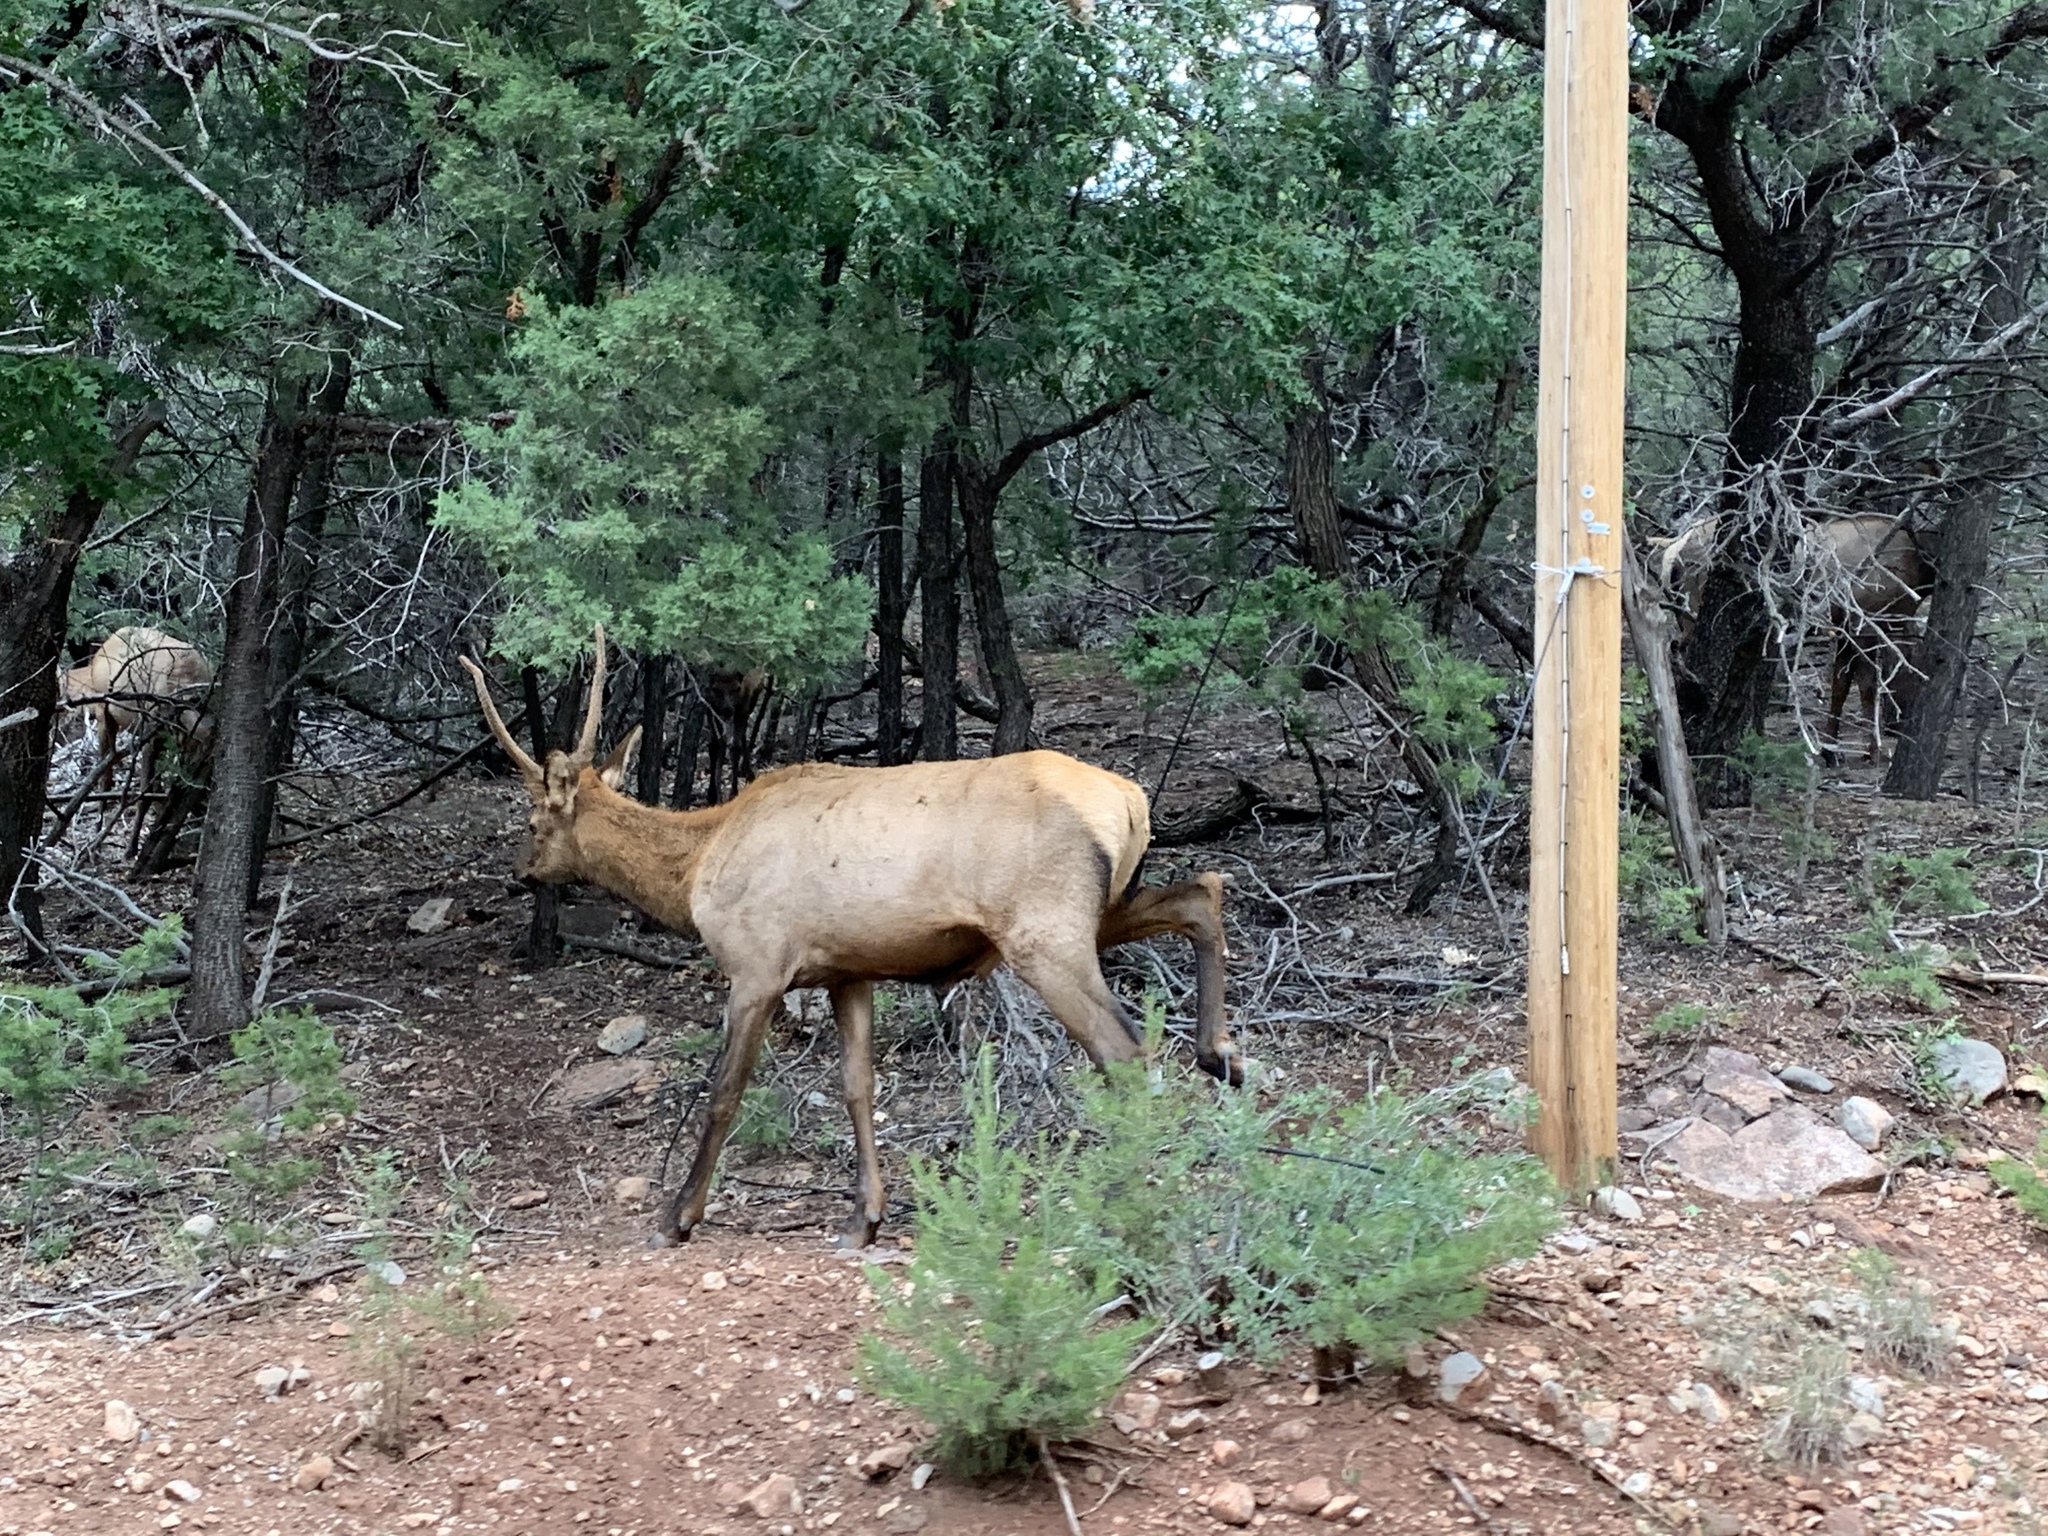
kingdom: Animalia
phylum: Chordata
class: Mammalia
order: Artiodactyla
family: Cervidae
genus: Cervus
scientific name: Cervus elaphus
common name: Red deer
